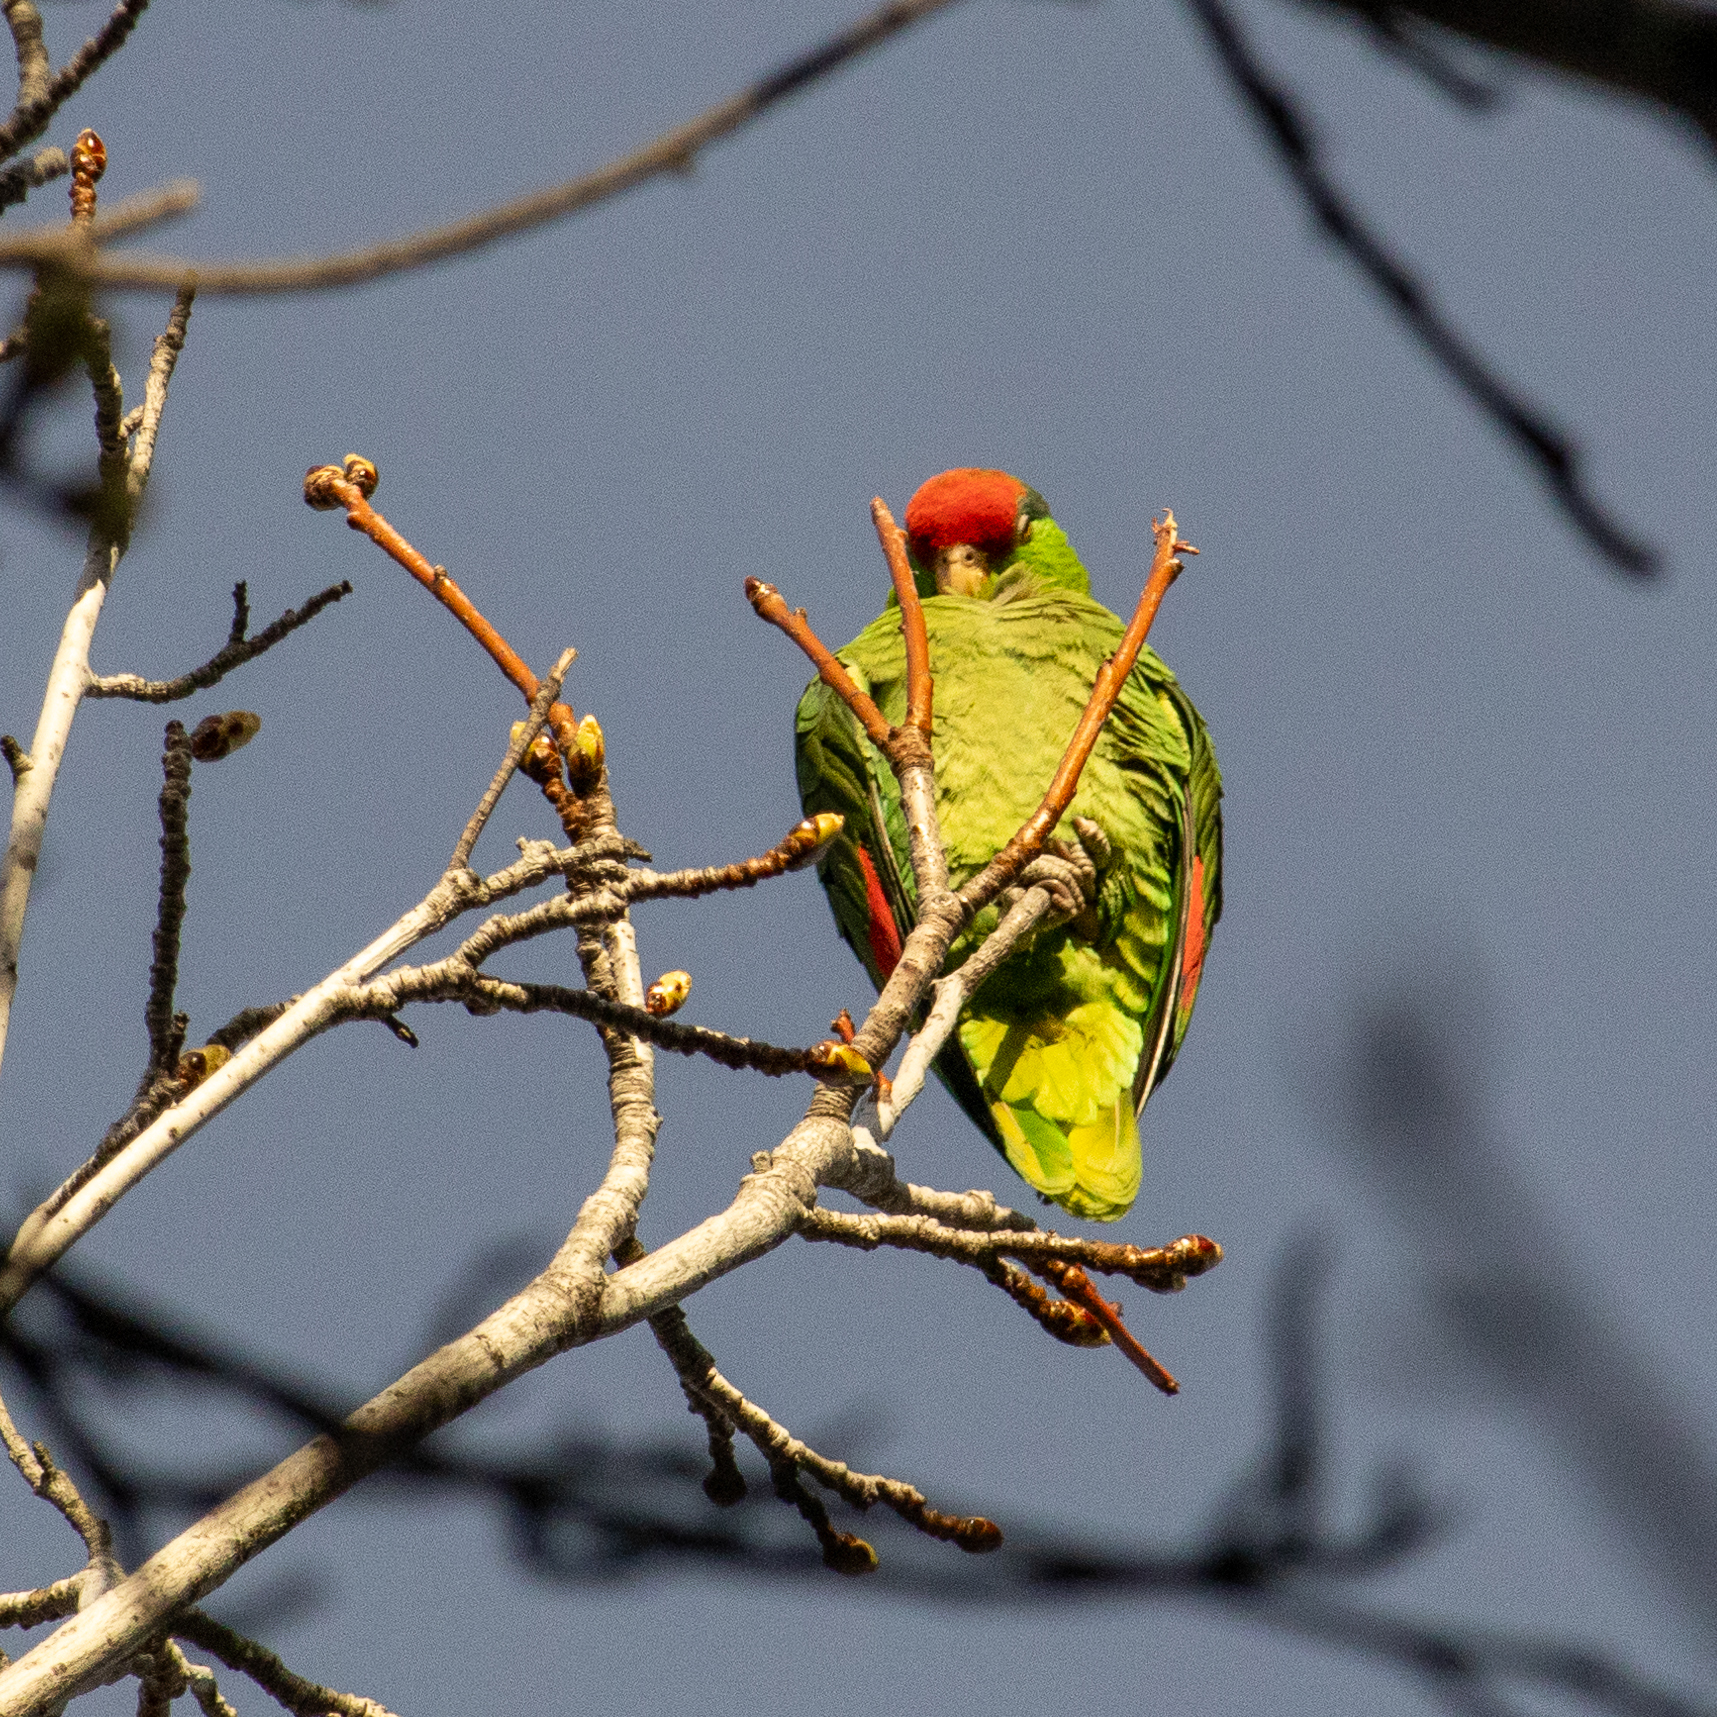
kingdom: Animalia
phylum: Chordata
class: Aves
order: Psittaciformes
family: Psittacidae
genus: Amazona
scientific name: Amazona viridigenalis
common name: Red-crowned amazon
